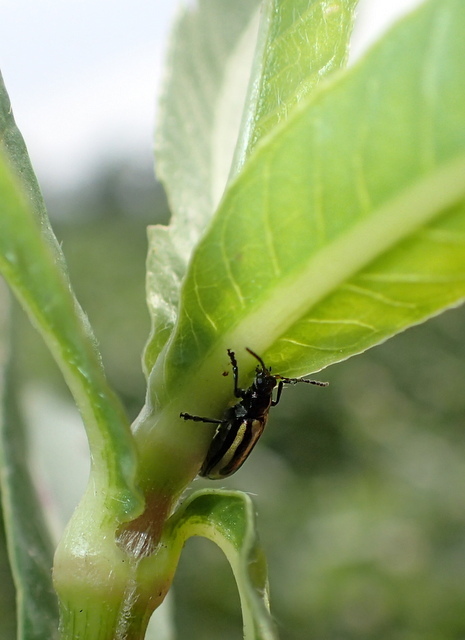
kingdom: Animalia
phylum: Arthropoda
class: Insecta
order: Coleoptera
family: Chrysomelidae
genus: Agasicles
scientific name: Agasicles hygrophila
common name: Alligatorweed flea beetle
